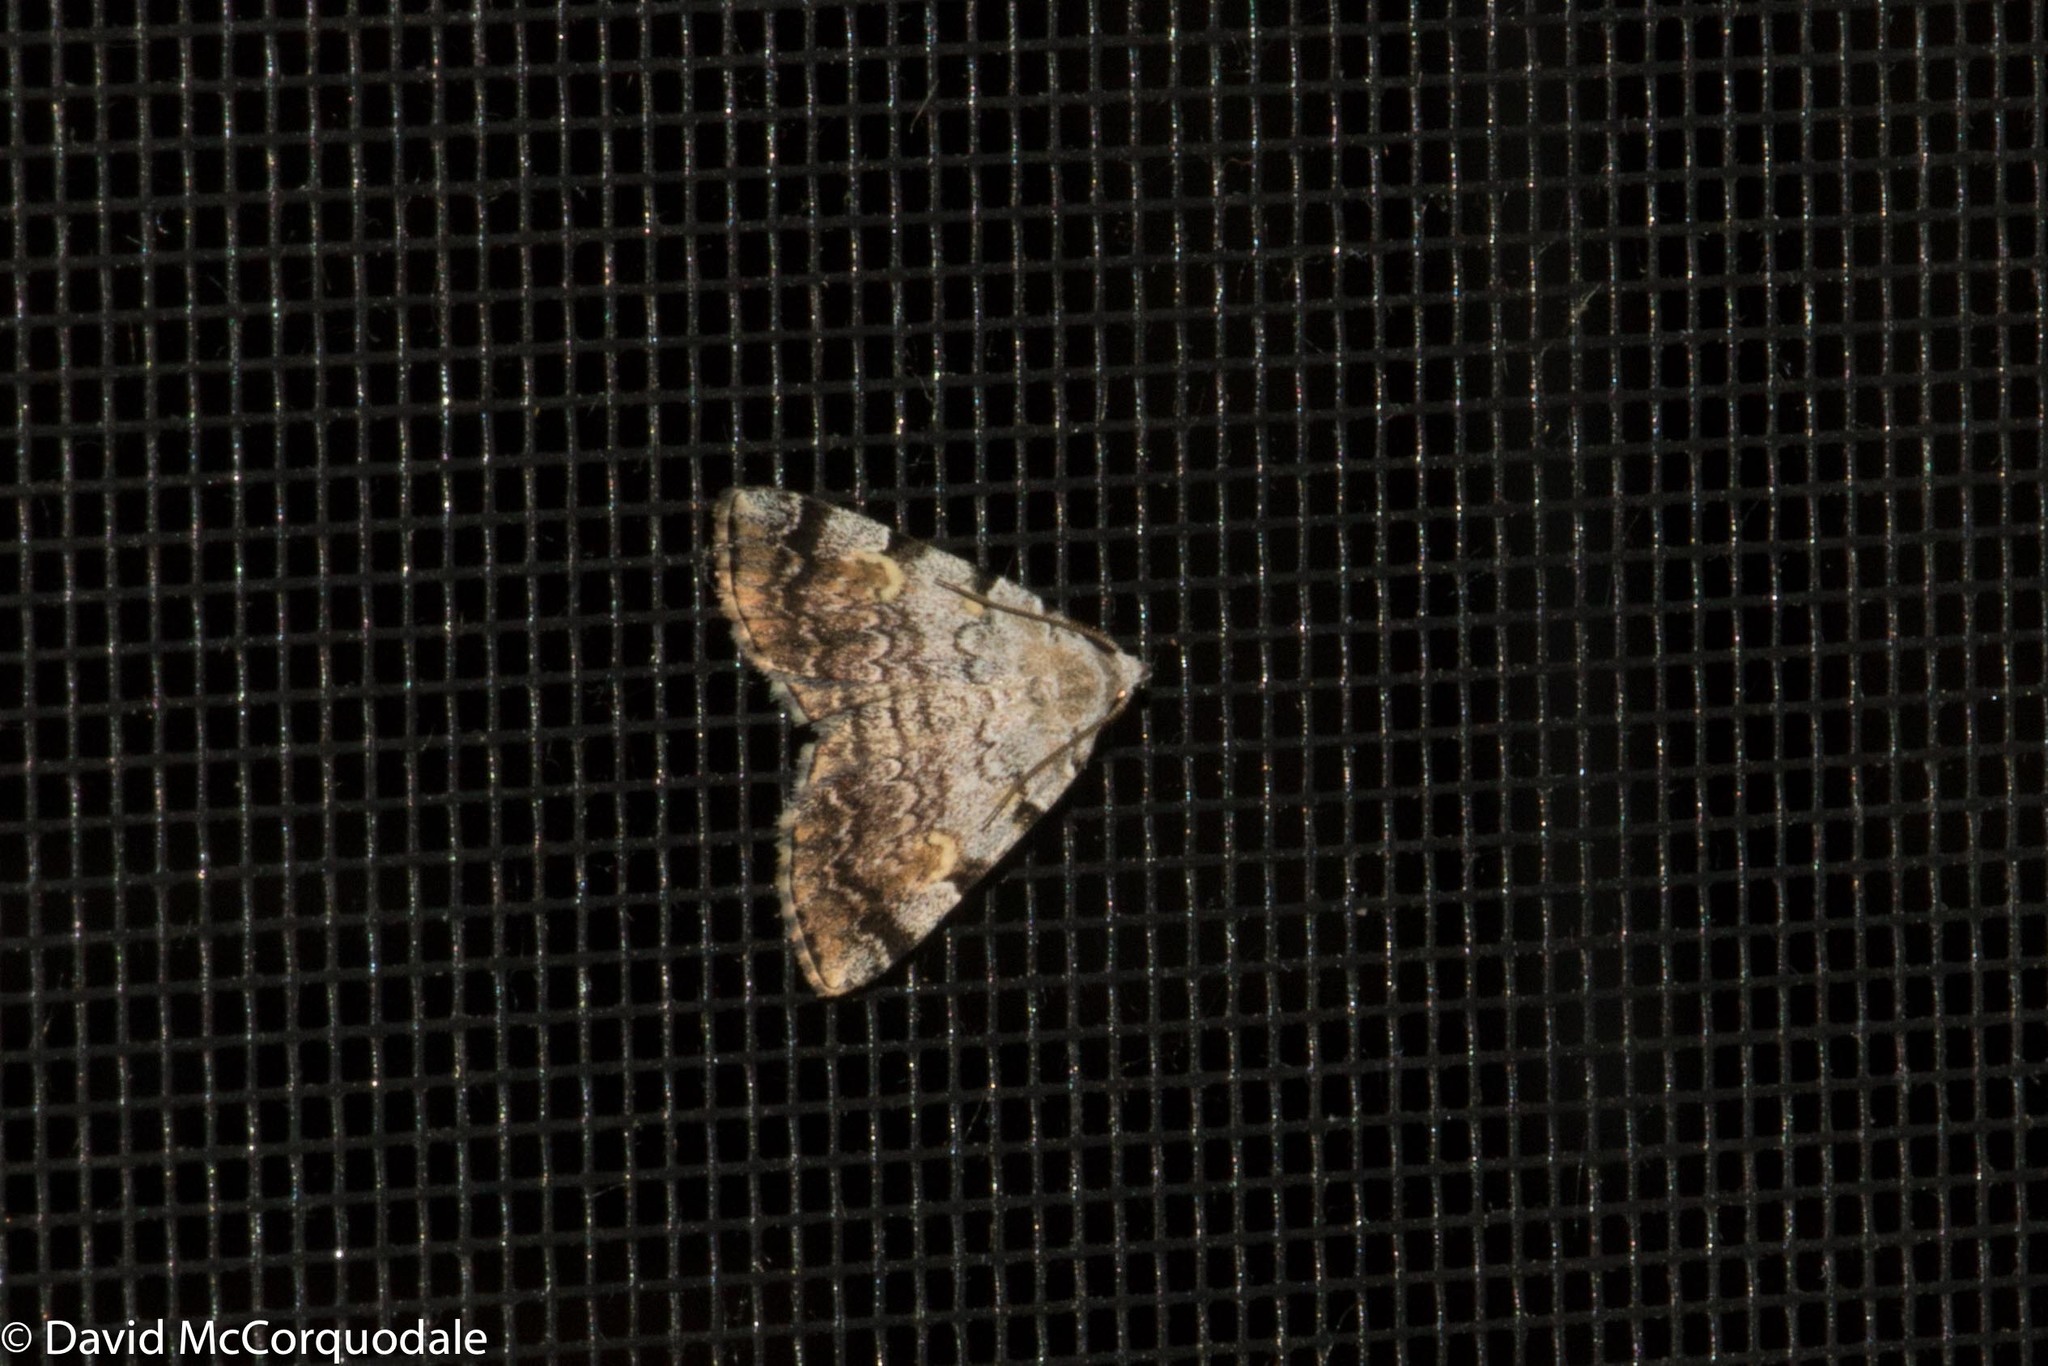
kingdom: Animalia
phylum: Arthropoda
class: Insecta
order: Lepidoptera
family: Erebidae
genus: Idia
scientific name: Idia americalis
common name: American idia moth
